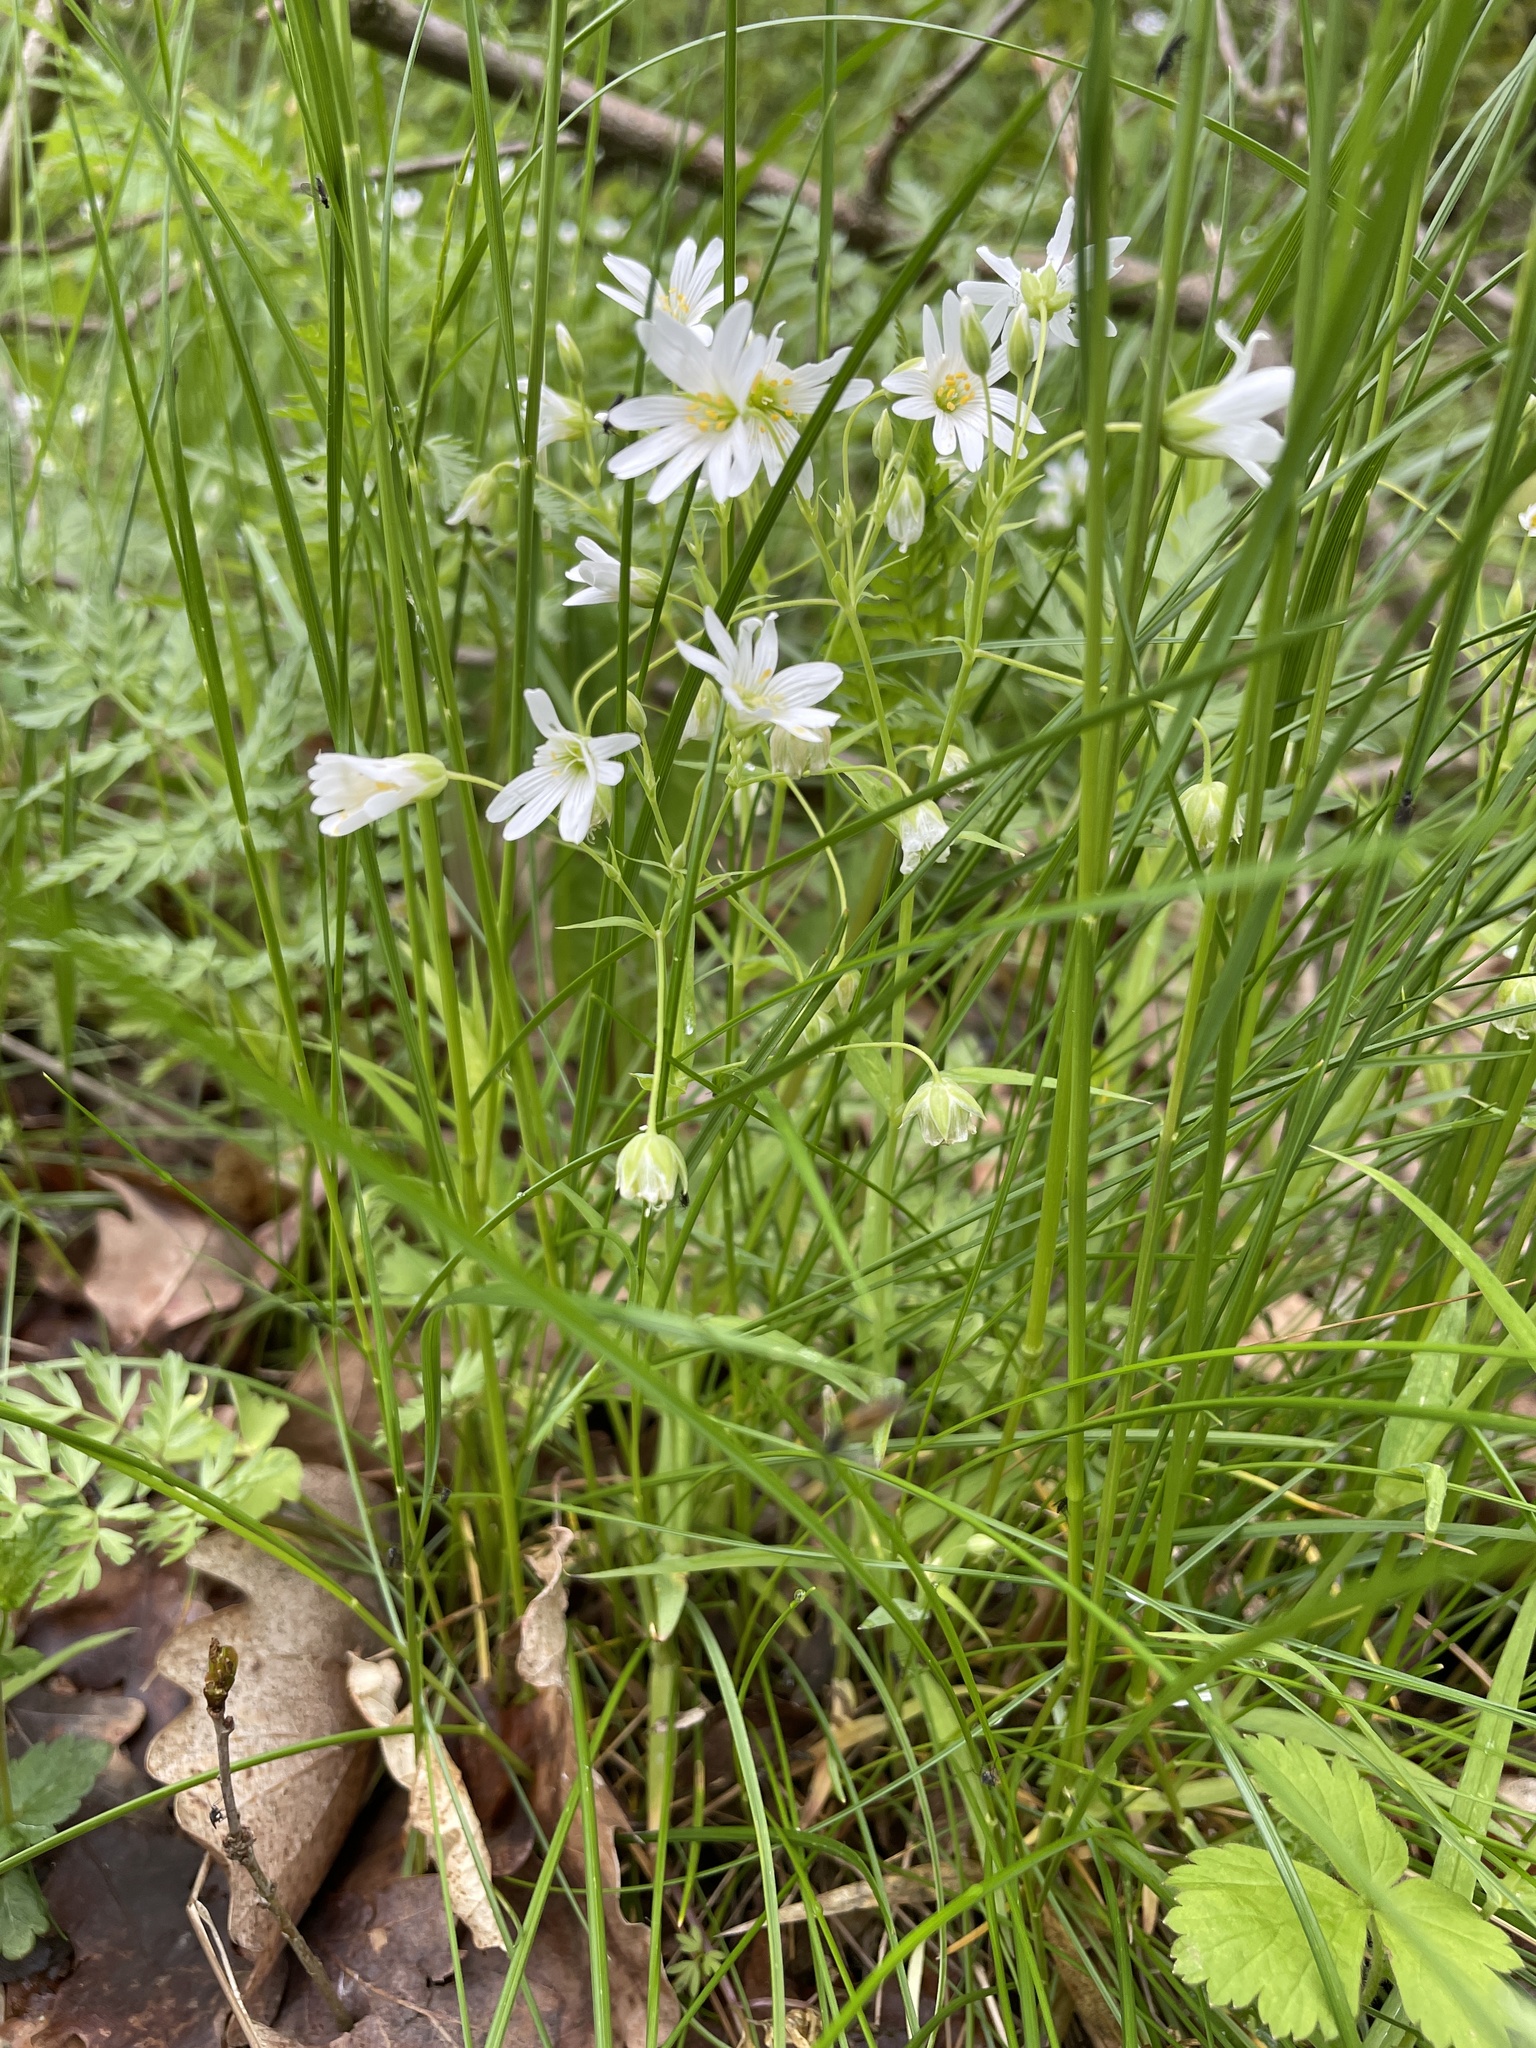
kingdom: Plantae
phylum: Tracheophyta
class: Magnoliopsida
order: Caryophyllales
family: Caryophyllaceae
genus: Rabelera
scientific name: Rabelera holostea
